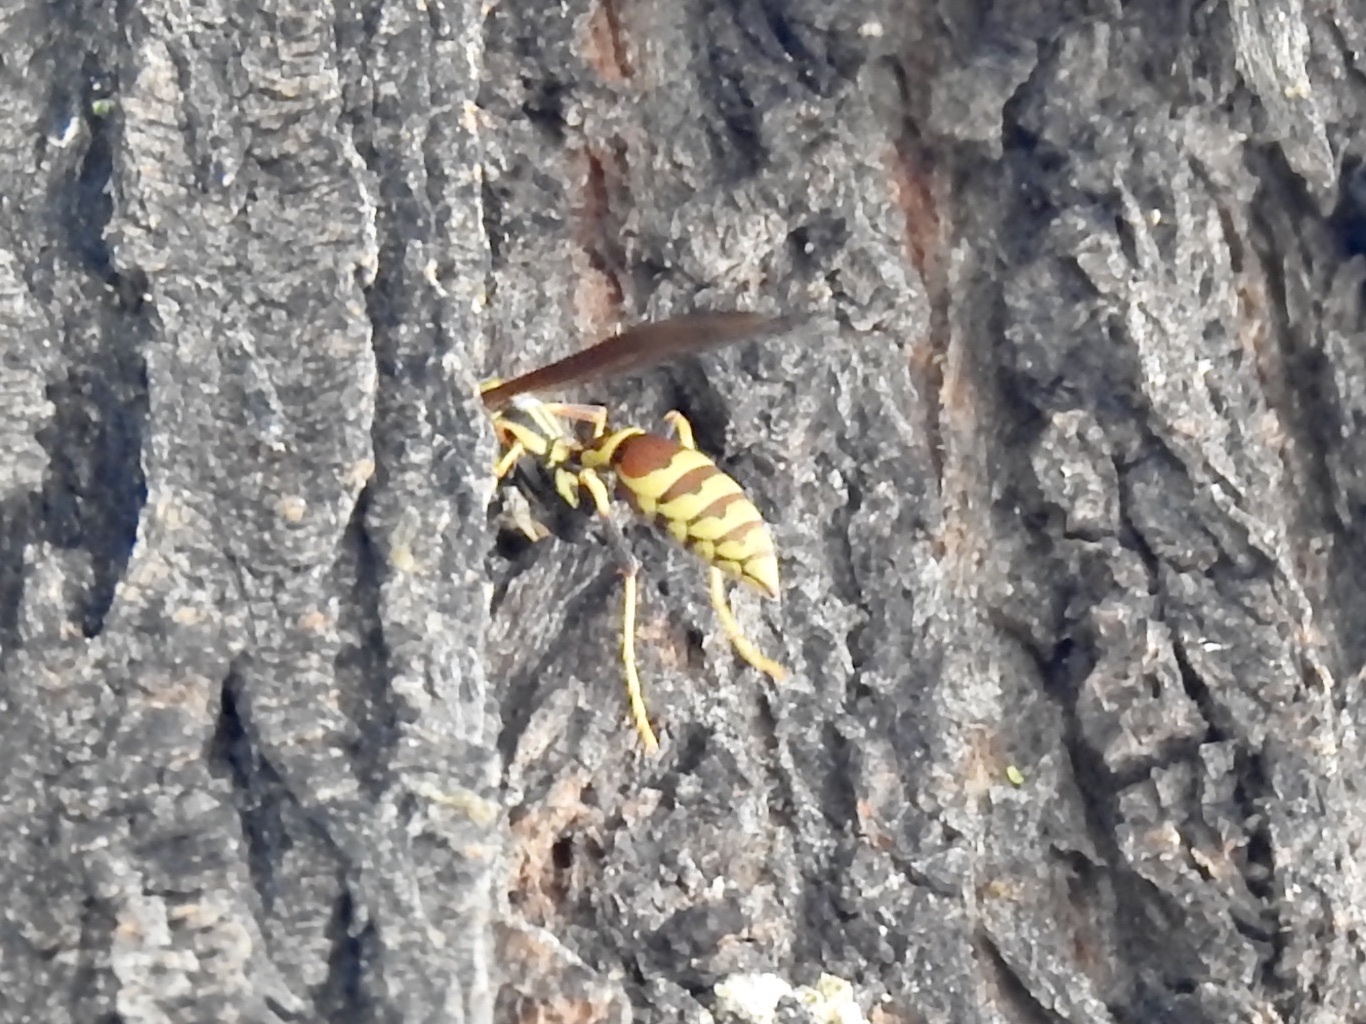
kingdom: Animalia
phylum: Arthropoda
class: Insecta
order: Hymenoptera
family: Eumenidae
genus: Polistes
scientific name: Polistes exclamans
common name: Paper wasp
